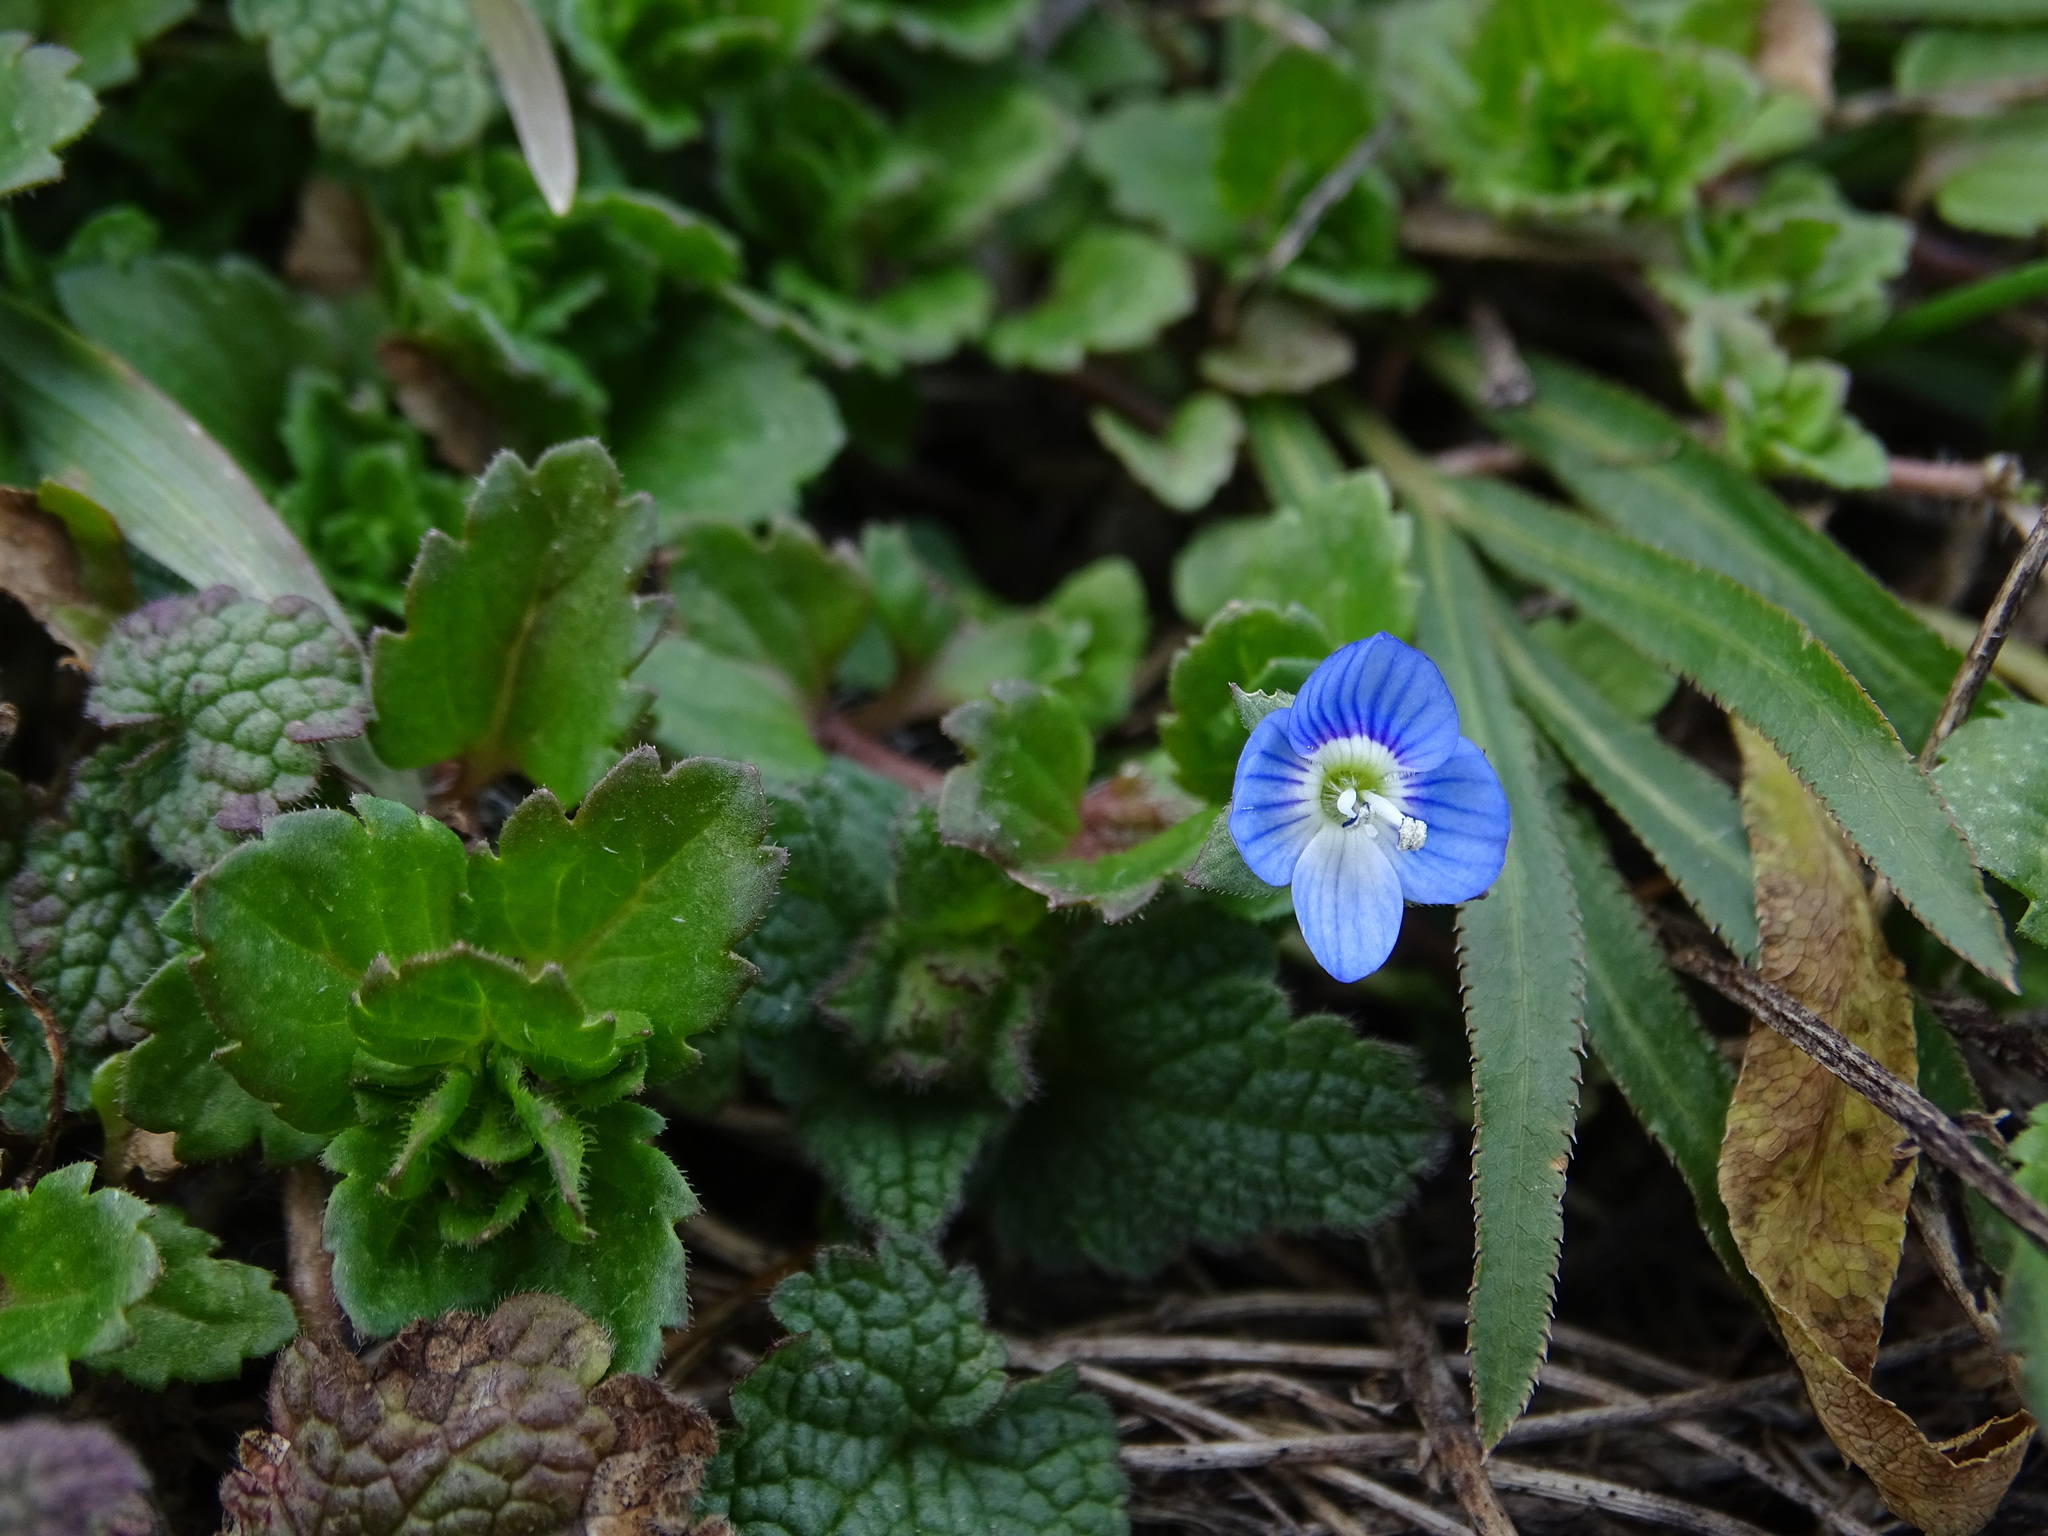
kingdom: Plantae
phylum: Tracheophyta
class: Magnoliopsida
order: Lamiales
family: Plantaginaceae
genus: Veronica
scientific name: Veronica persica
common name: Common field-speedwell
